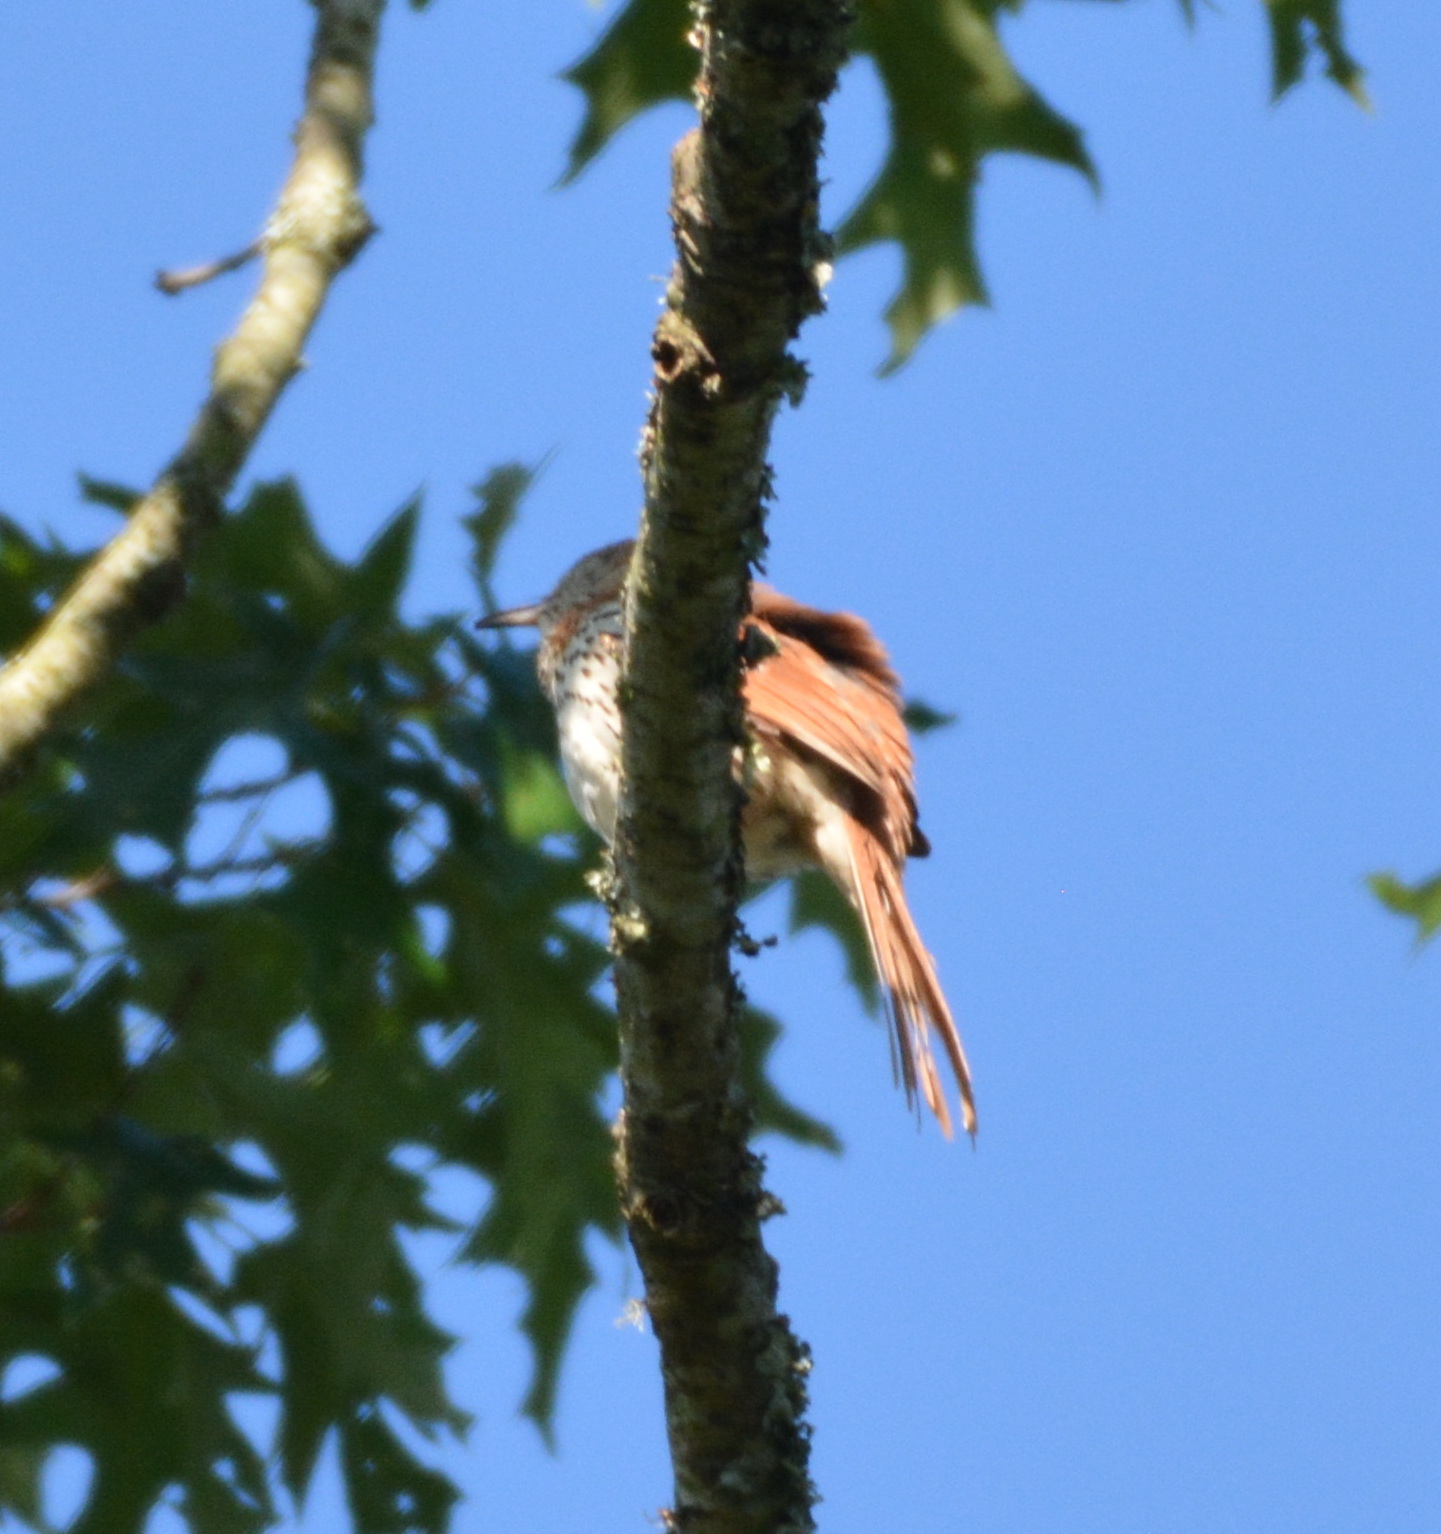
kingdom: Animalia
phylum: Chordata
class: Aves
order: Passeriformes
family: Mimidae
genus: Toxostoma
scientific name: Toxostoma rufum
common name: Brown thrasher
